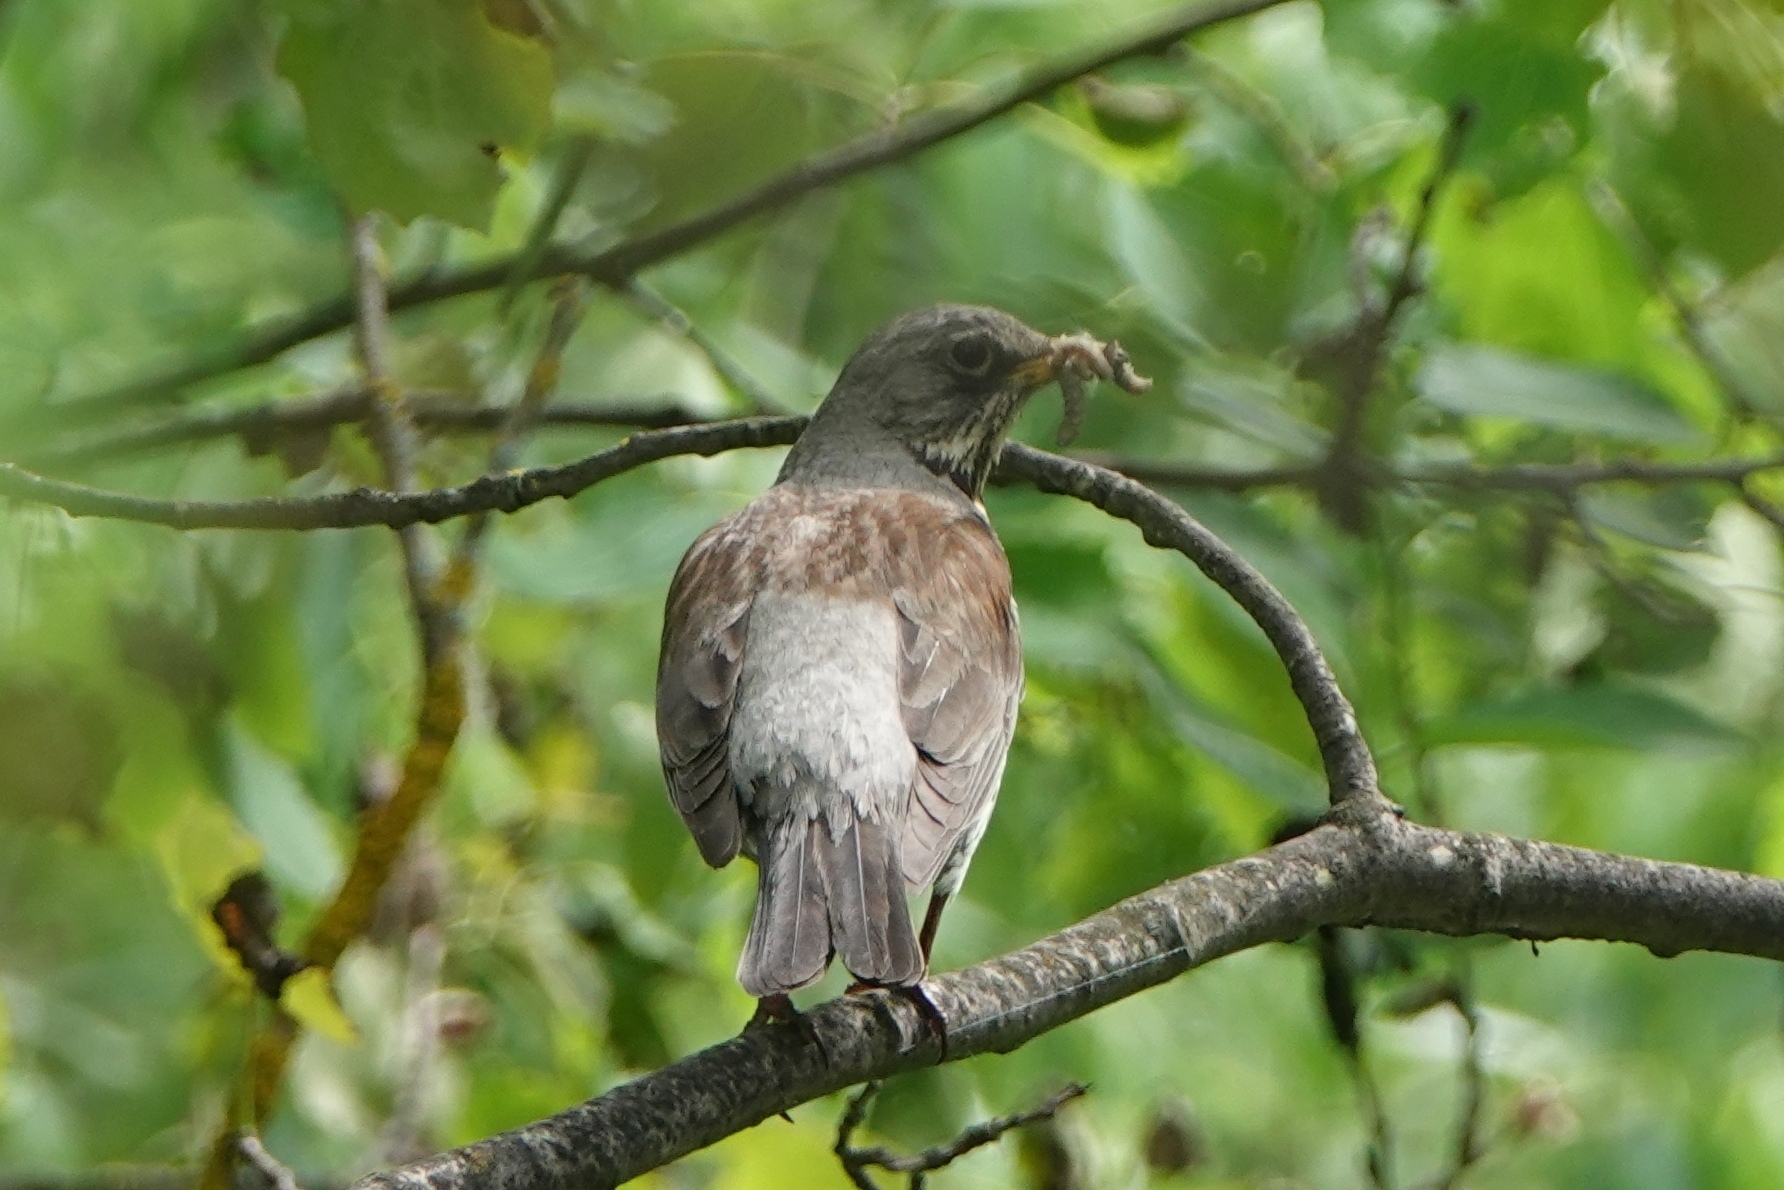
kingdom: Animalia
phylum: Chordata
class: Aves
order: Passeriformes
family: Turdidae
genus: Turdus
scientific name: Turdus pilaris
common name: Fieldfare
